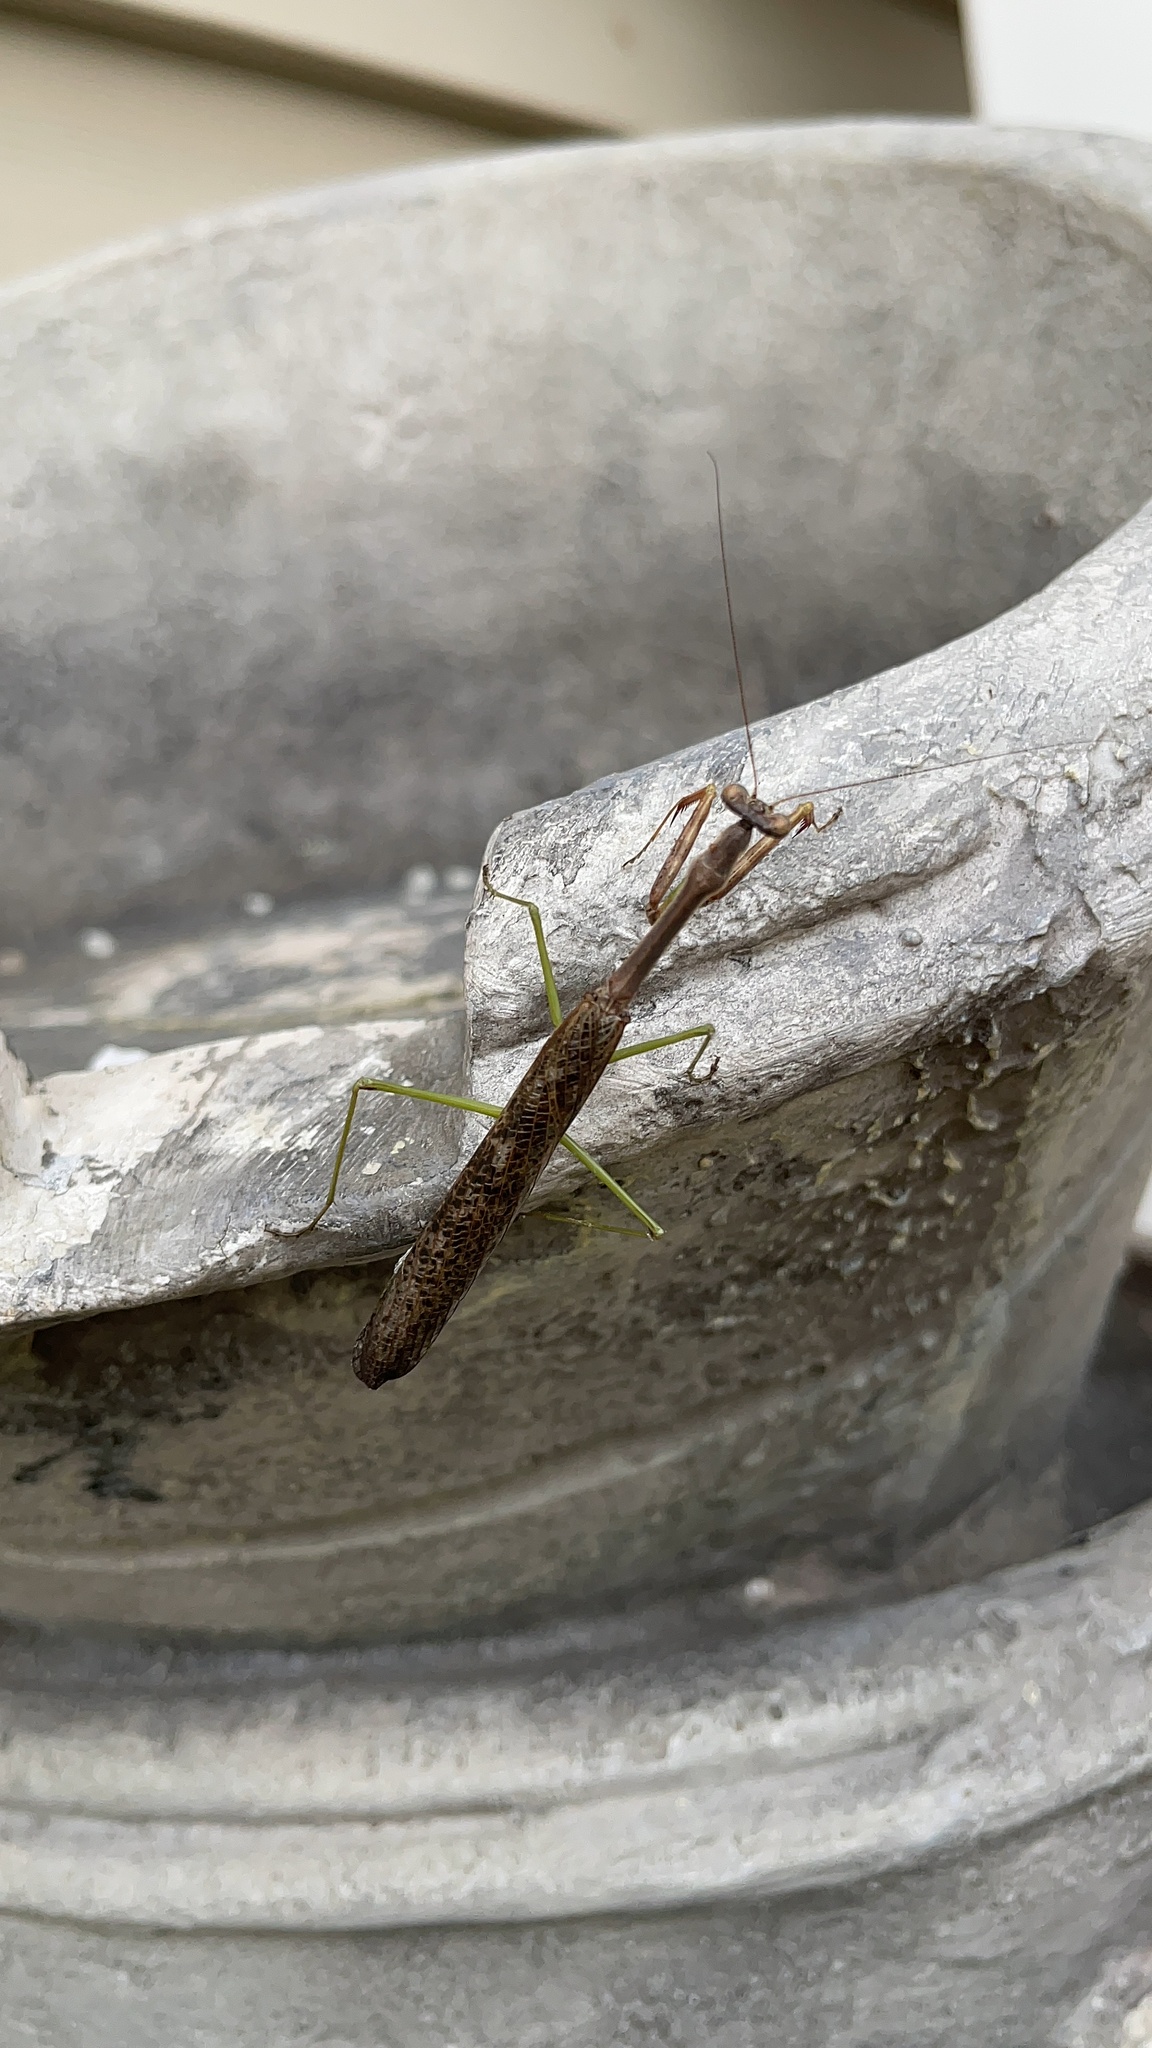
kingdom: Animalia
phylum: Arthropoda
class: Insecta
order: Mantodea
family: Mantidae
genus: Stagmomantis
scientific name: Stagmomantis carolina
